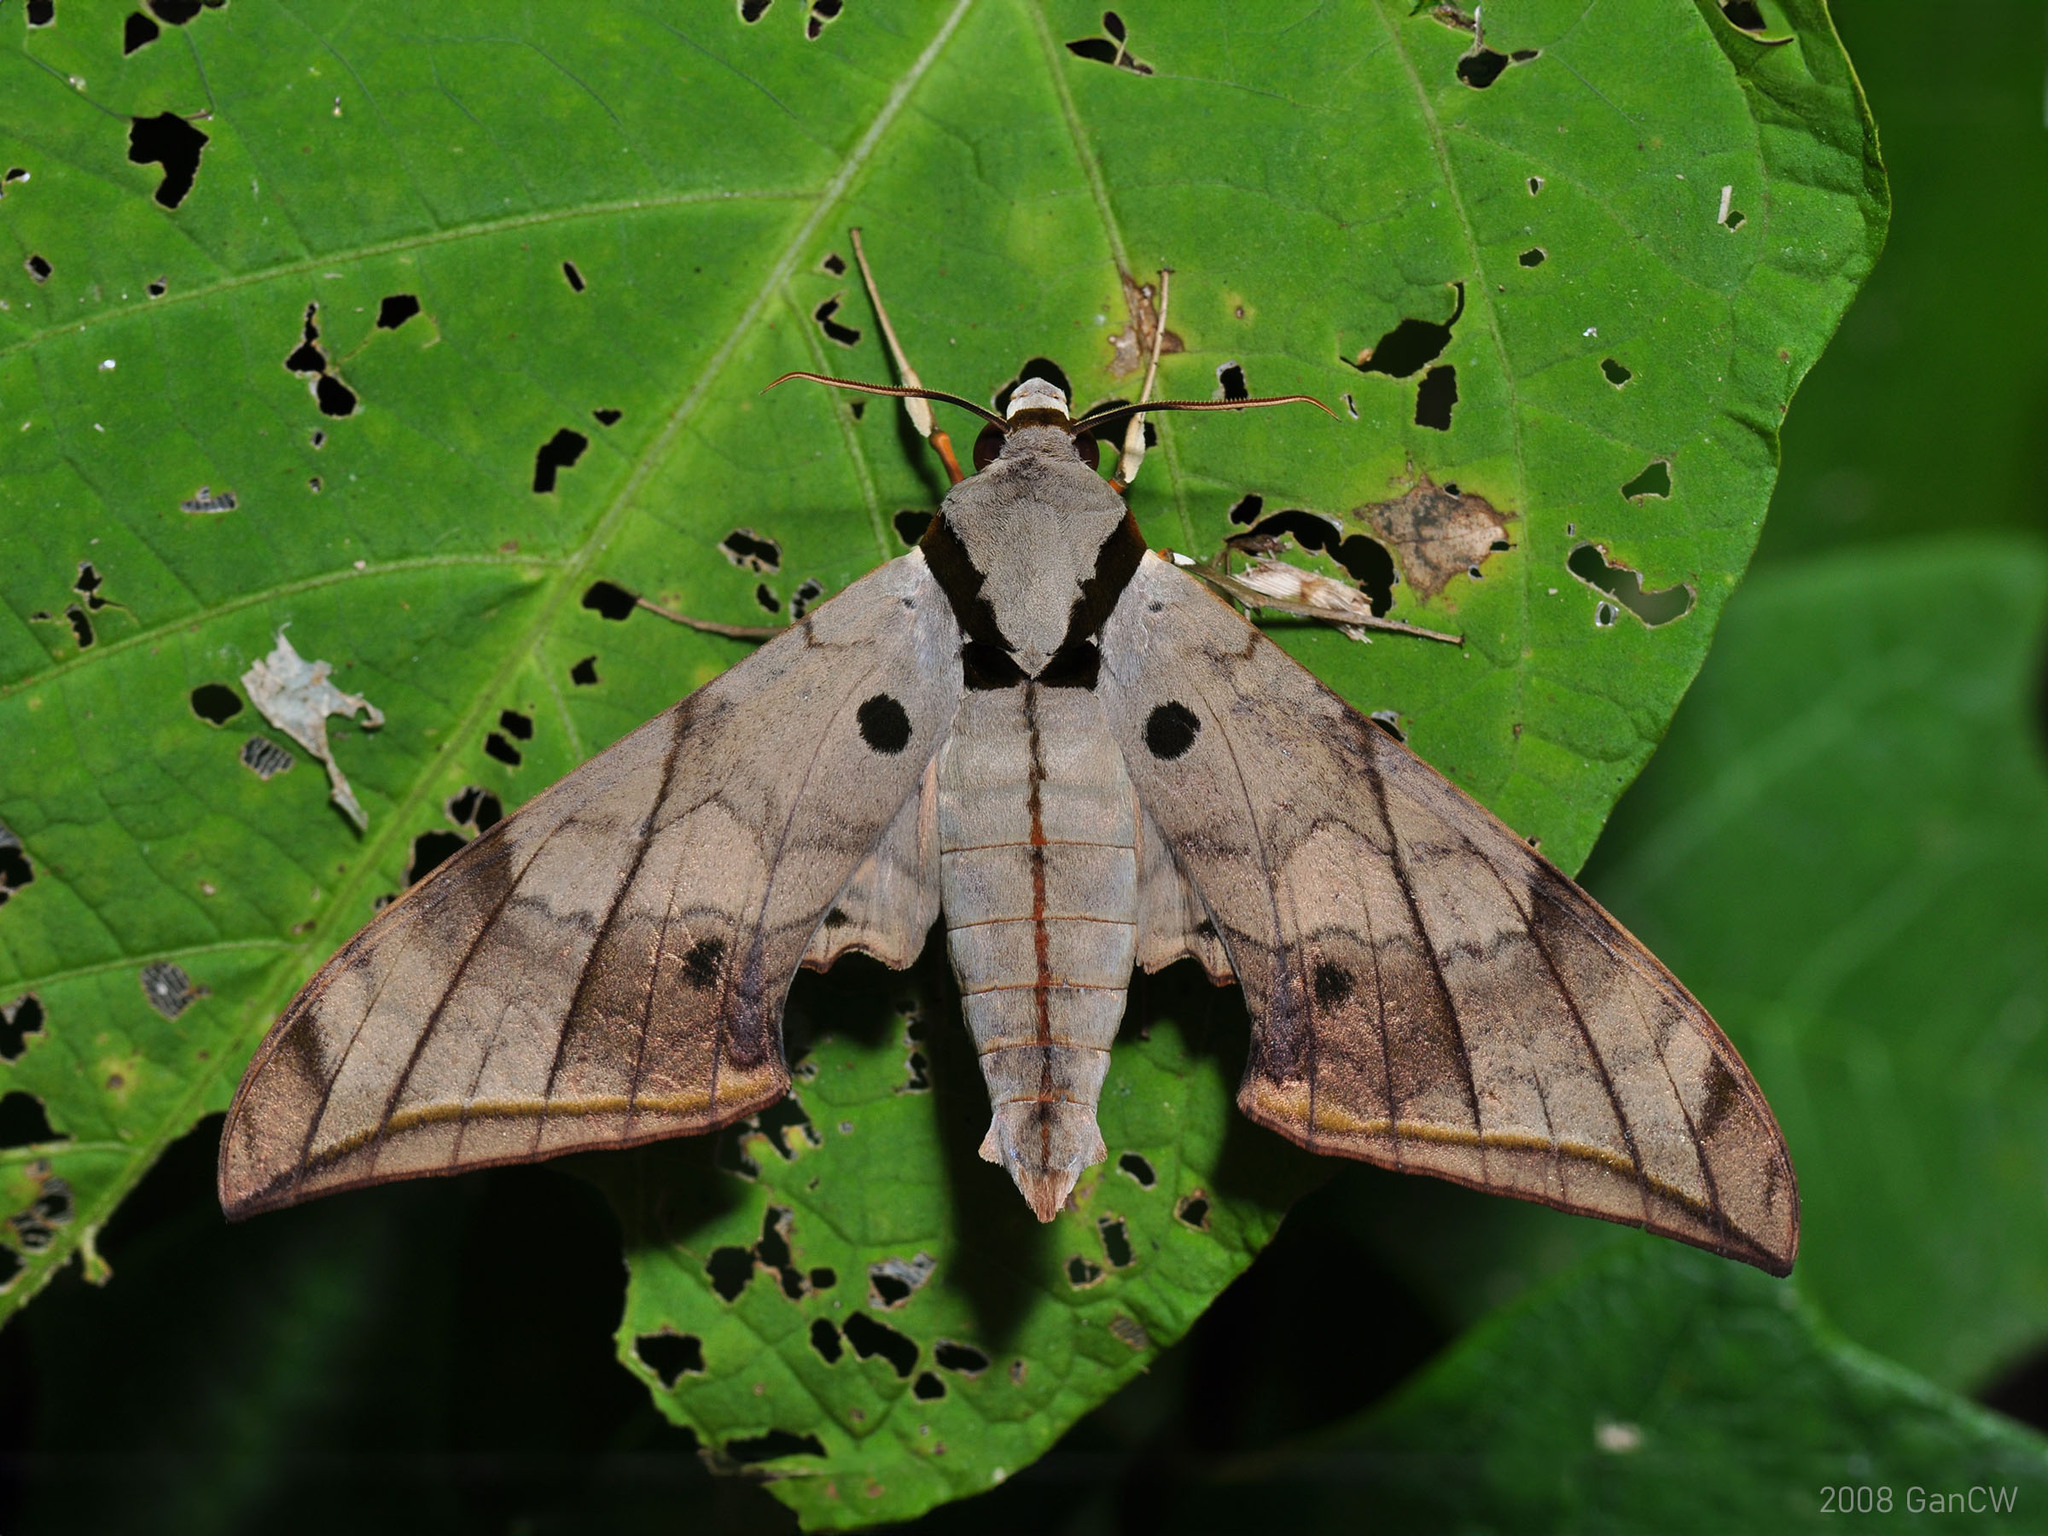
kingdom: Animalia
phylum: Arthropoda
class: Insecta
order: Lepidoptera
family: Sphingidae
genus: Ambulyx
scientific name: Ambulyx substrigilis
